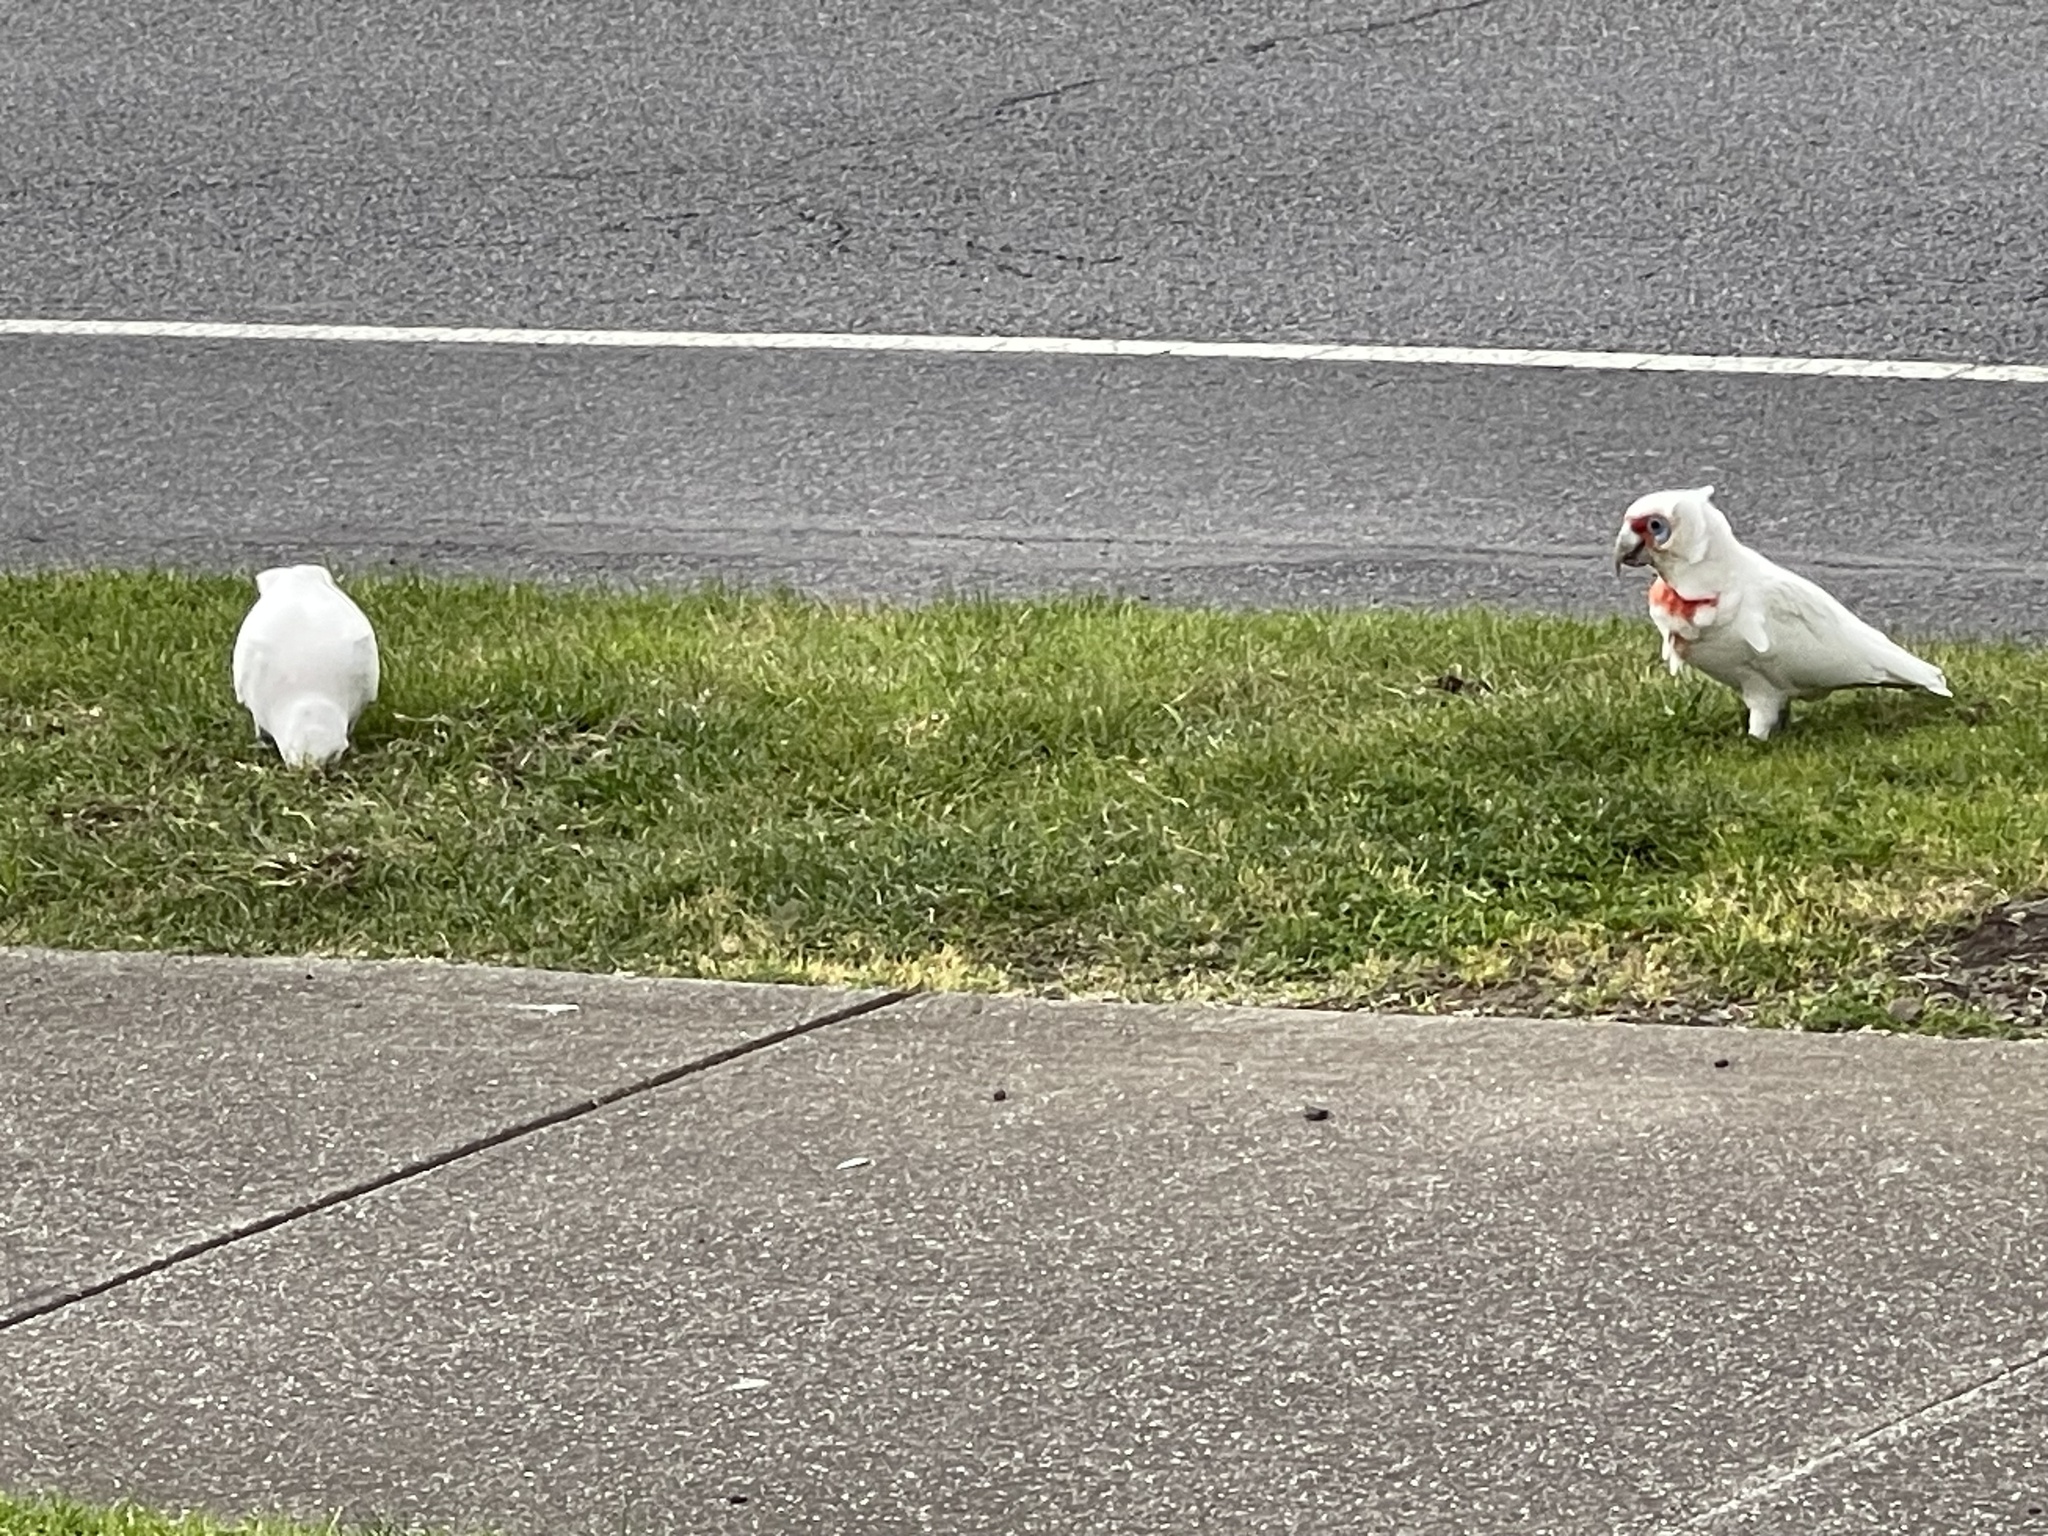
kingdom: Animalia
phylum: Chordata
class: Aves
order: Psittaciformes
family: Psittacidae
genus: Cacatua
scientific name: Cacatua tenuirostris
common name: Long-billed corella
